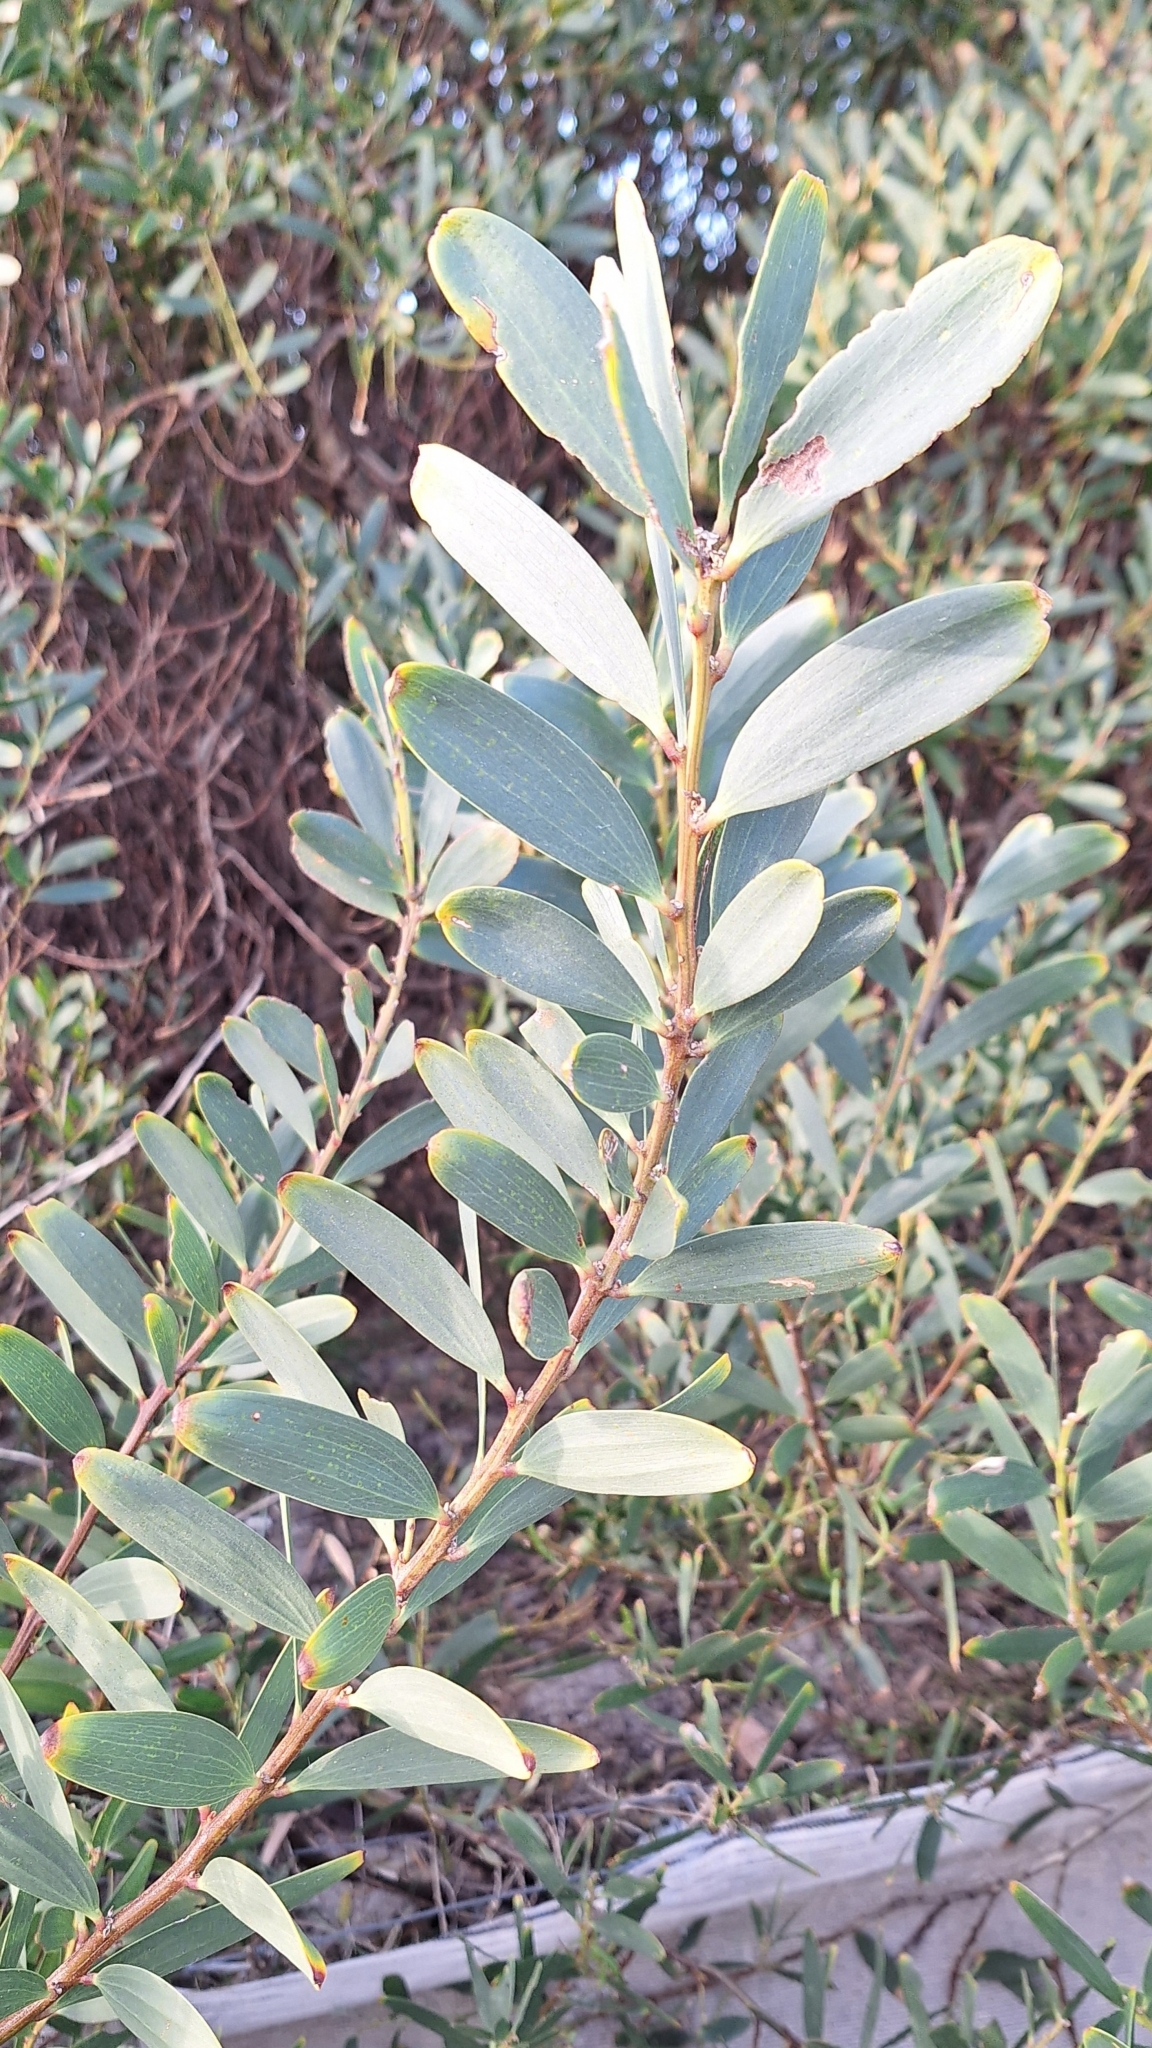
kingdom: Plantae
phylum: Tracheophyta
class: Magnoliopsida
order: Fabales
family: Fabaceae
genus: Acacia
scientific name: Acacia longifolia
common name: Sydney golden wattle
